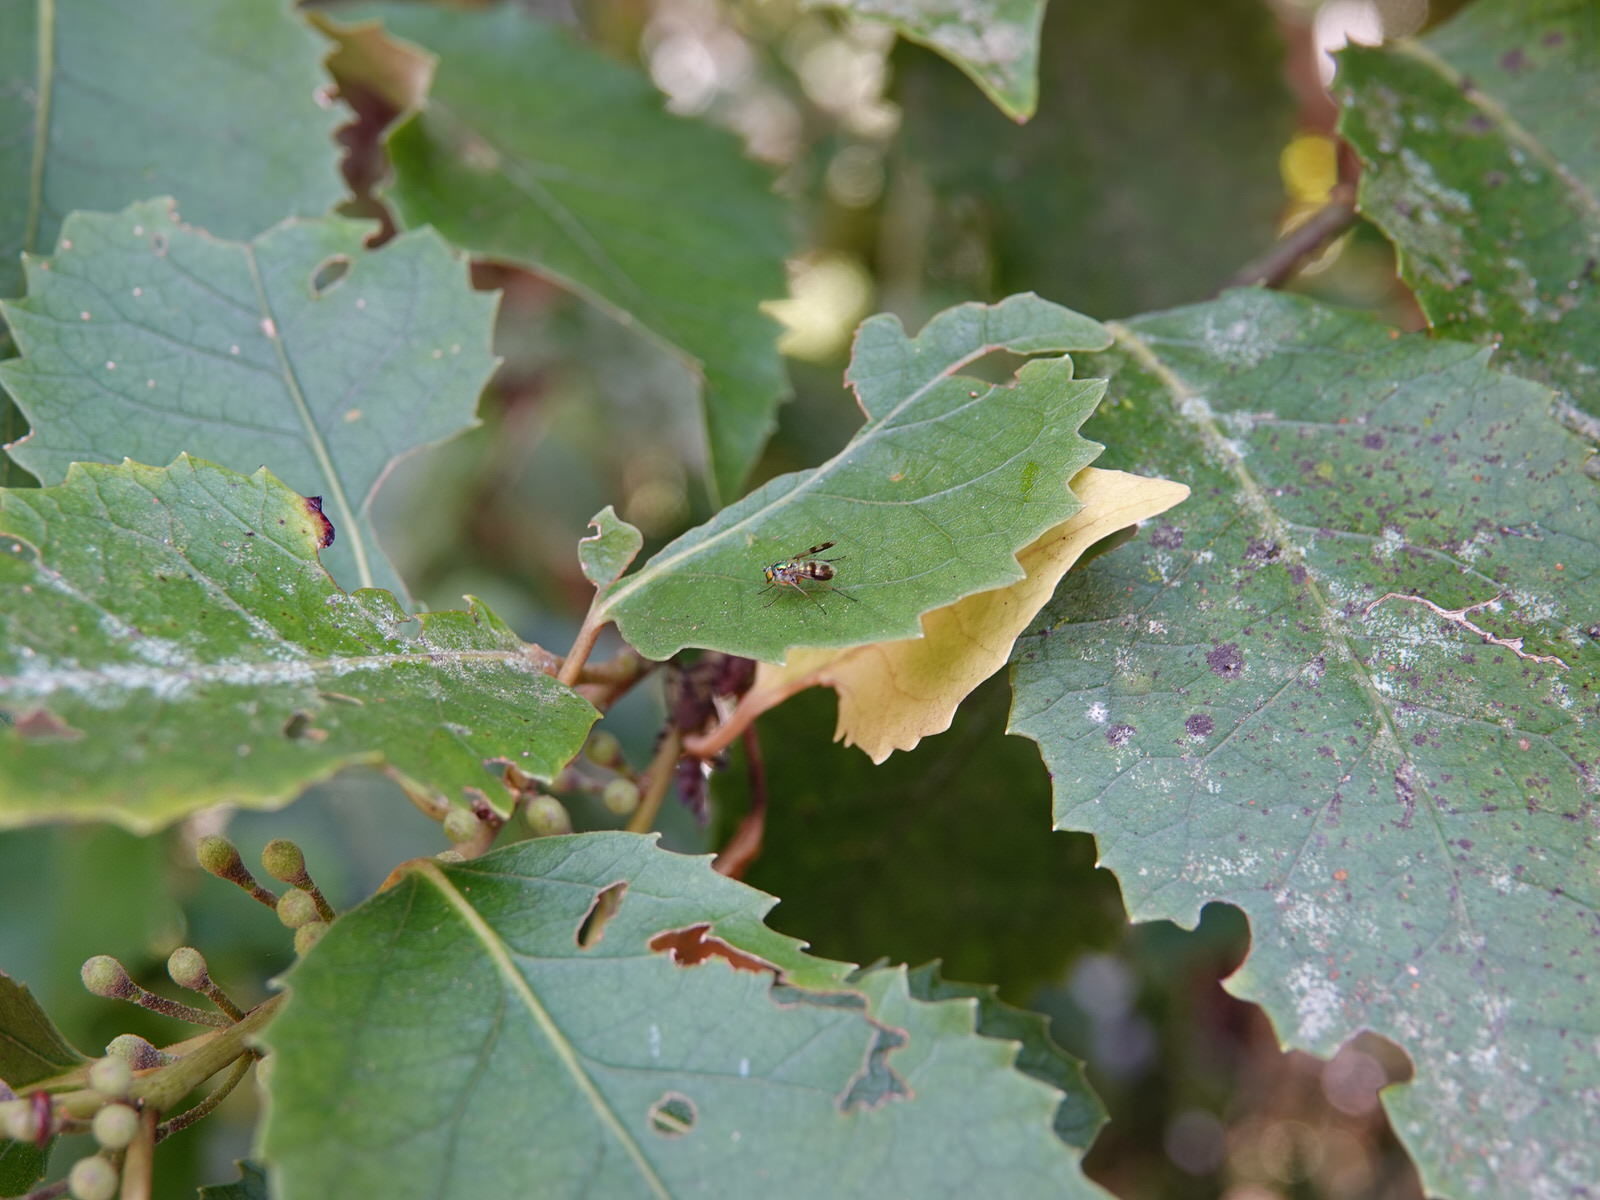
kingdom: Animalia
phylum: Arthropoda
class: Insecta
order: Diptera
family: Dolichopodidae
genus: Austrosciapus
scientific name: Austrosciapus proximus
